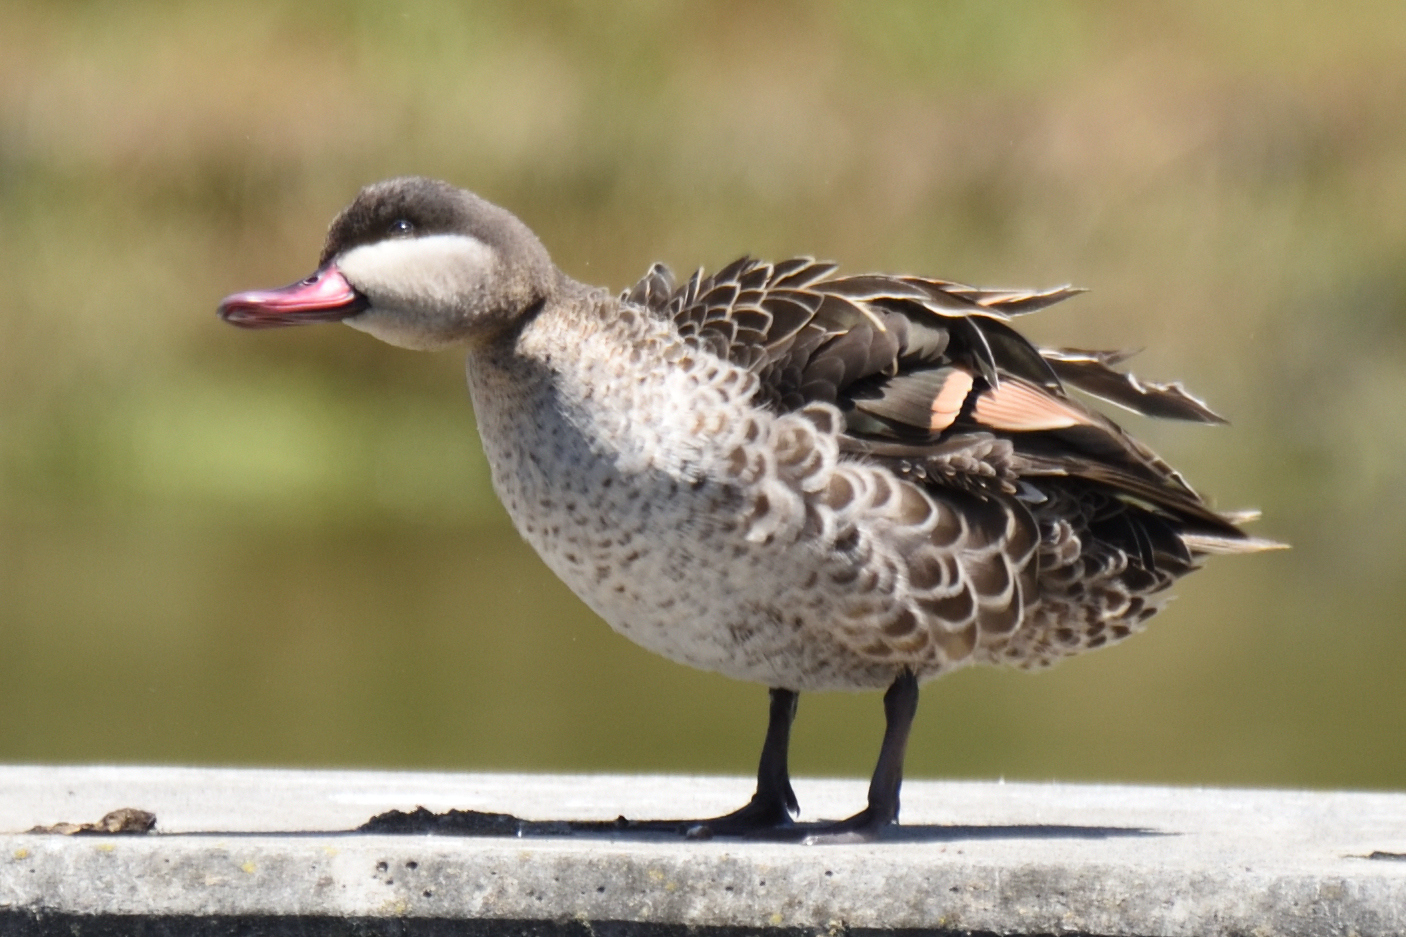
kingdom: Animalia
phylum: Chordata
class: Aves
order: Anseriformes
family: Anatidae
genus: Anas
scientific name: Anas erythrorhyncha
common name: Red-billed teal
